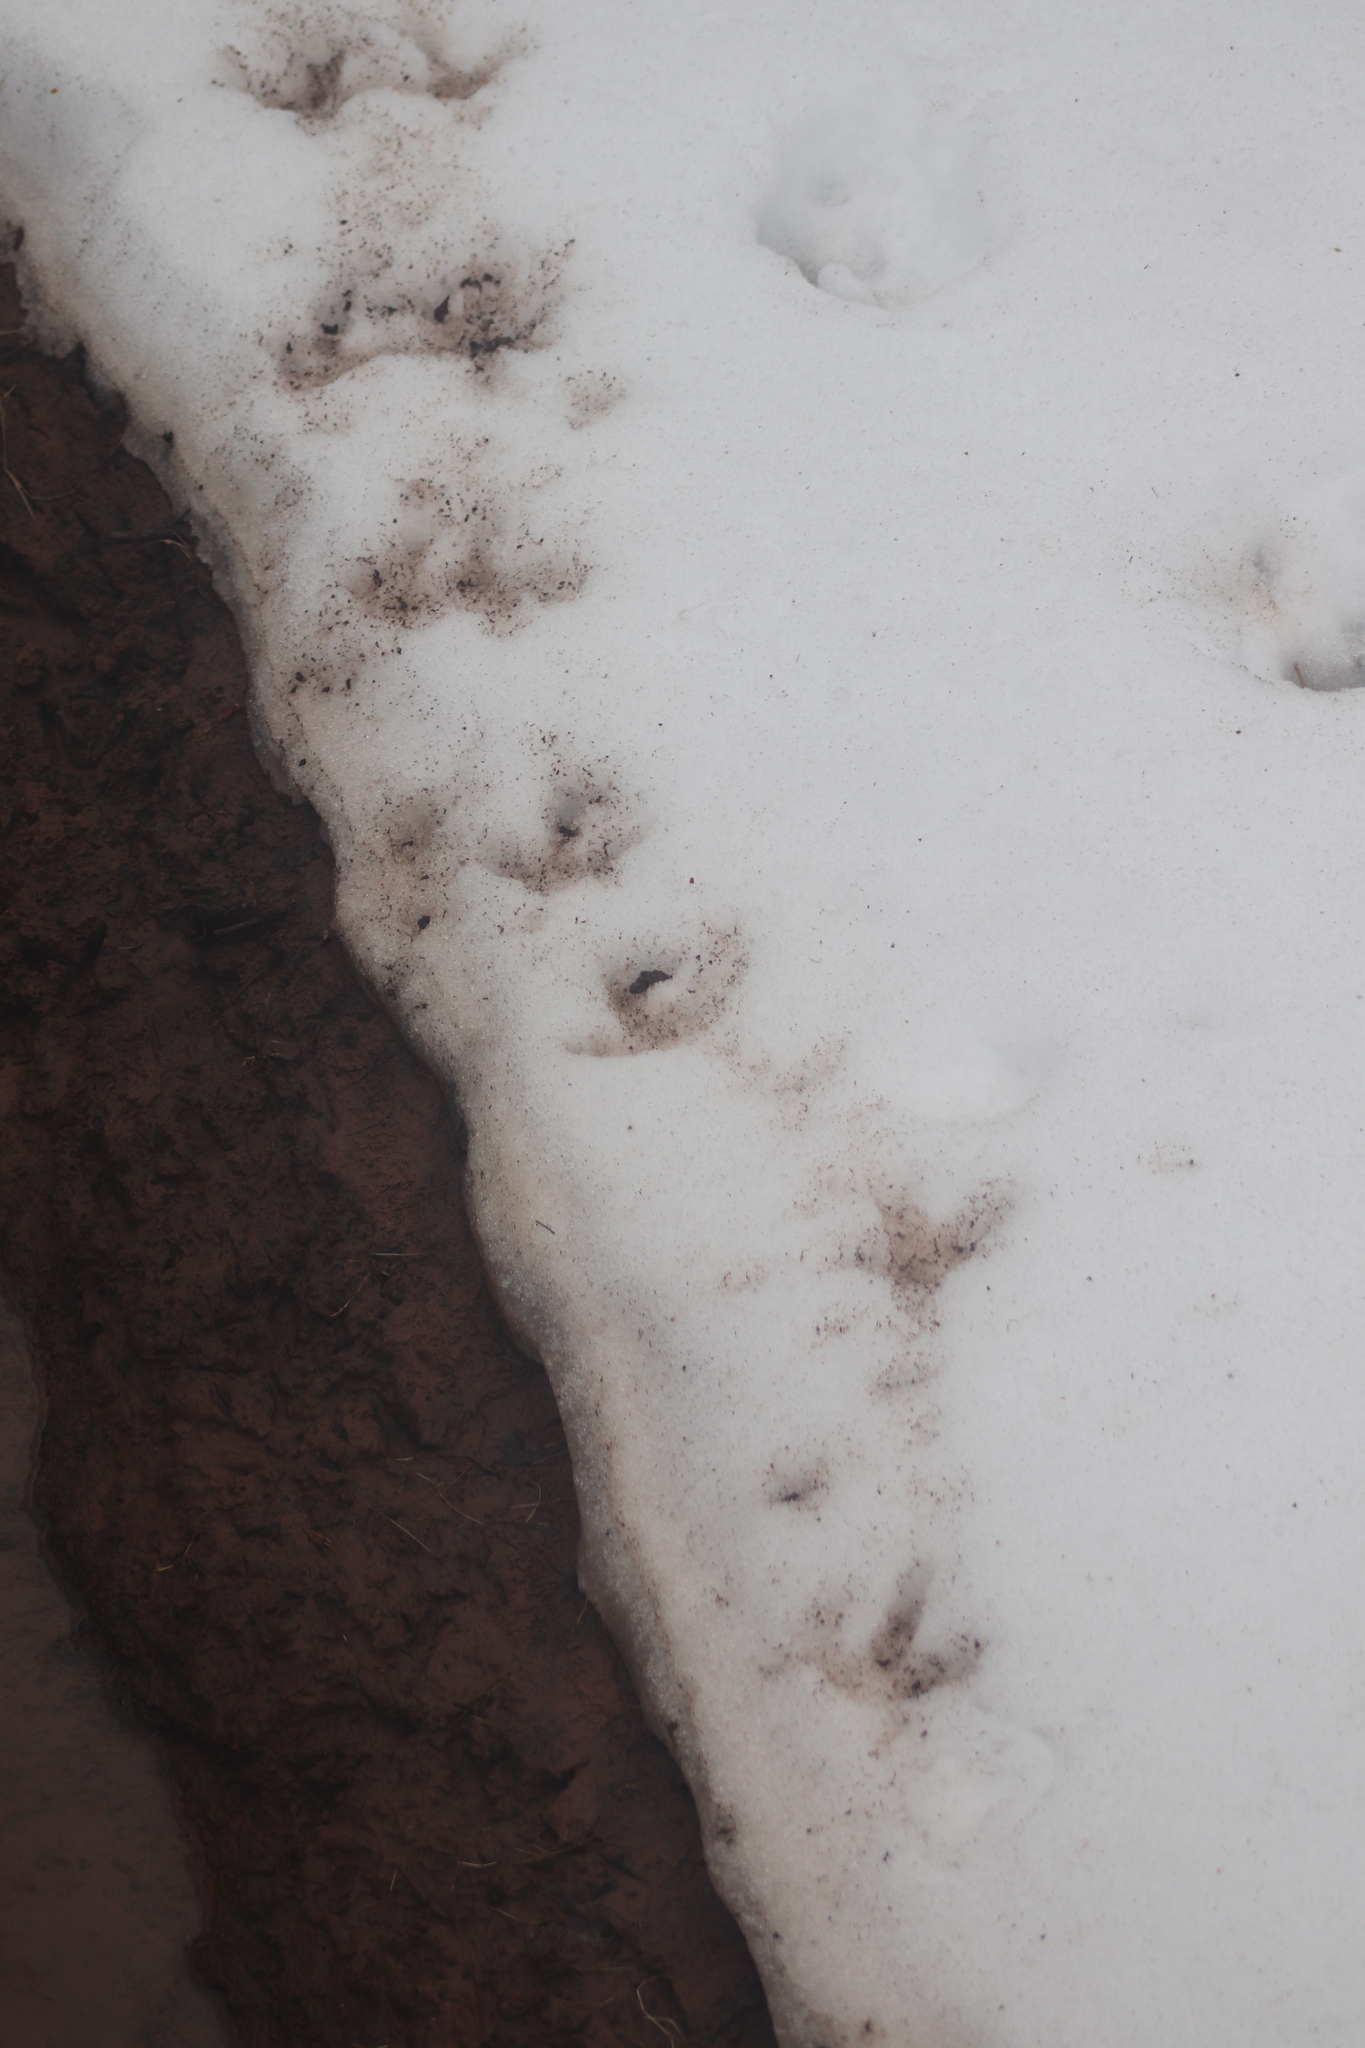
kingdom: Animalia
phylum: Chordata
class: Aves
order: Galliformes
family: Phasianidae
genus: Meleagris
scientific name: Meleagris gallopavo
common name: Wild turkey
